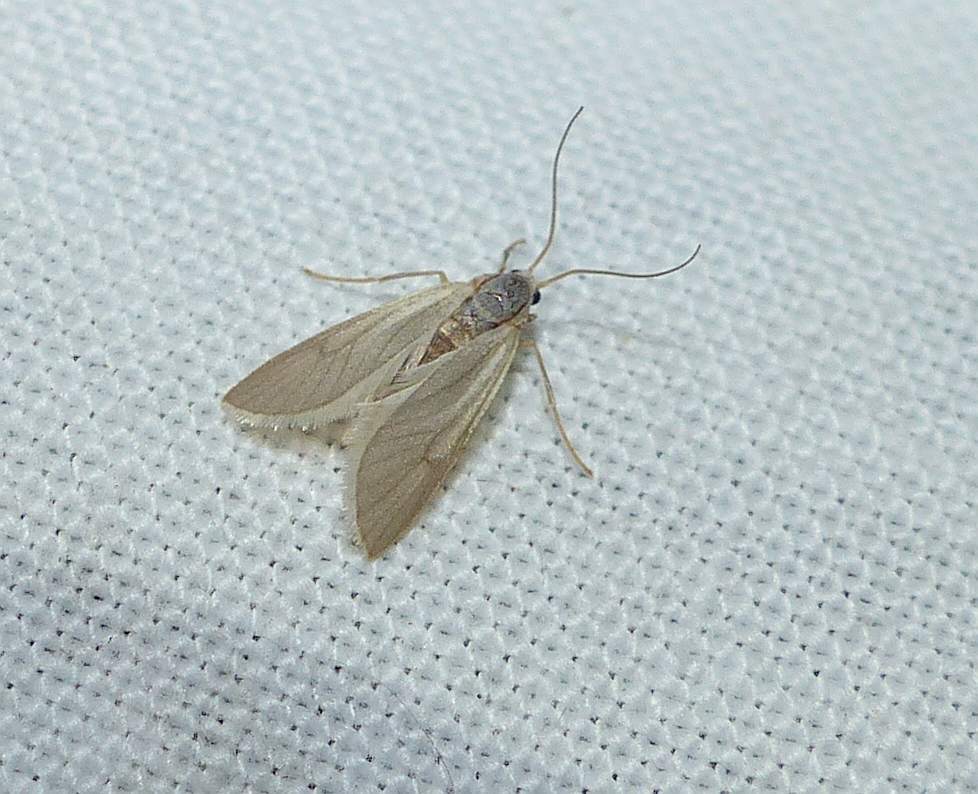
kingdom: Animalia
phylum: Arthropoda
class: Insecta
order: Lepidoptera
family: Crambidae
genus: Acentria
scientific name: Acentria ephemerella
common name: European water moth
